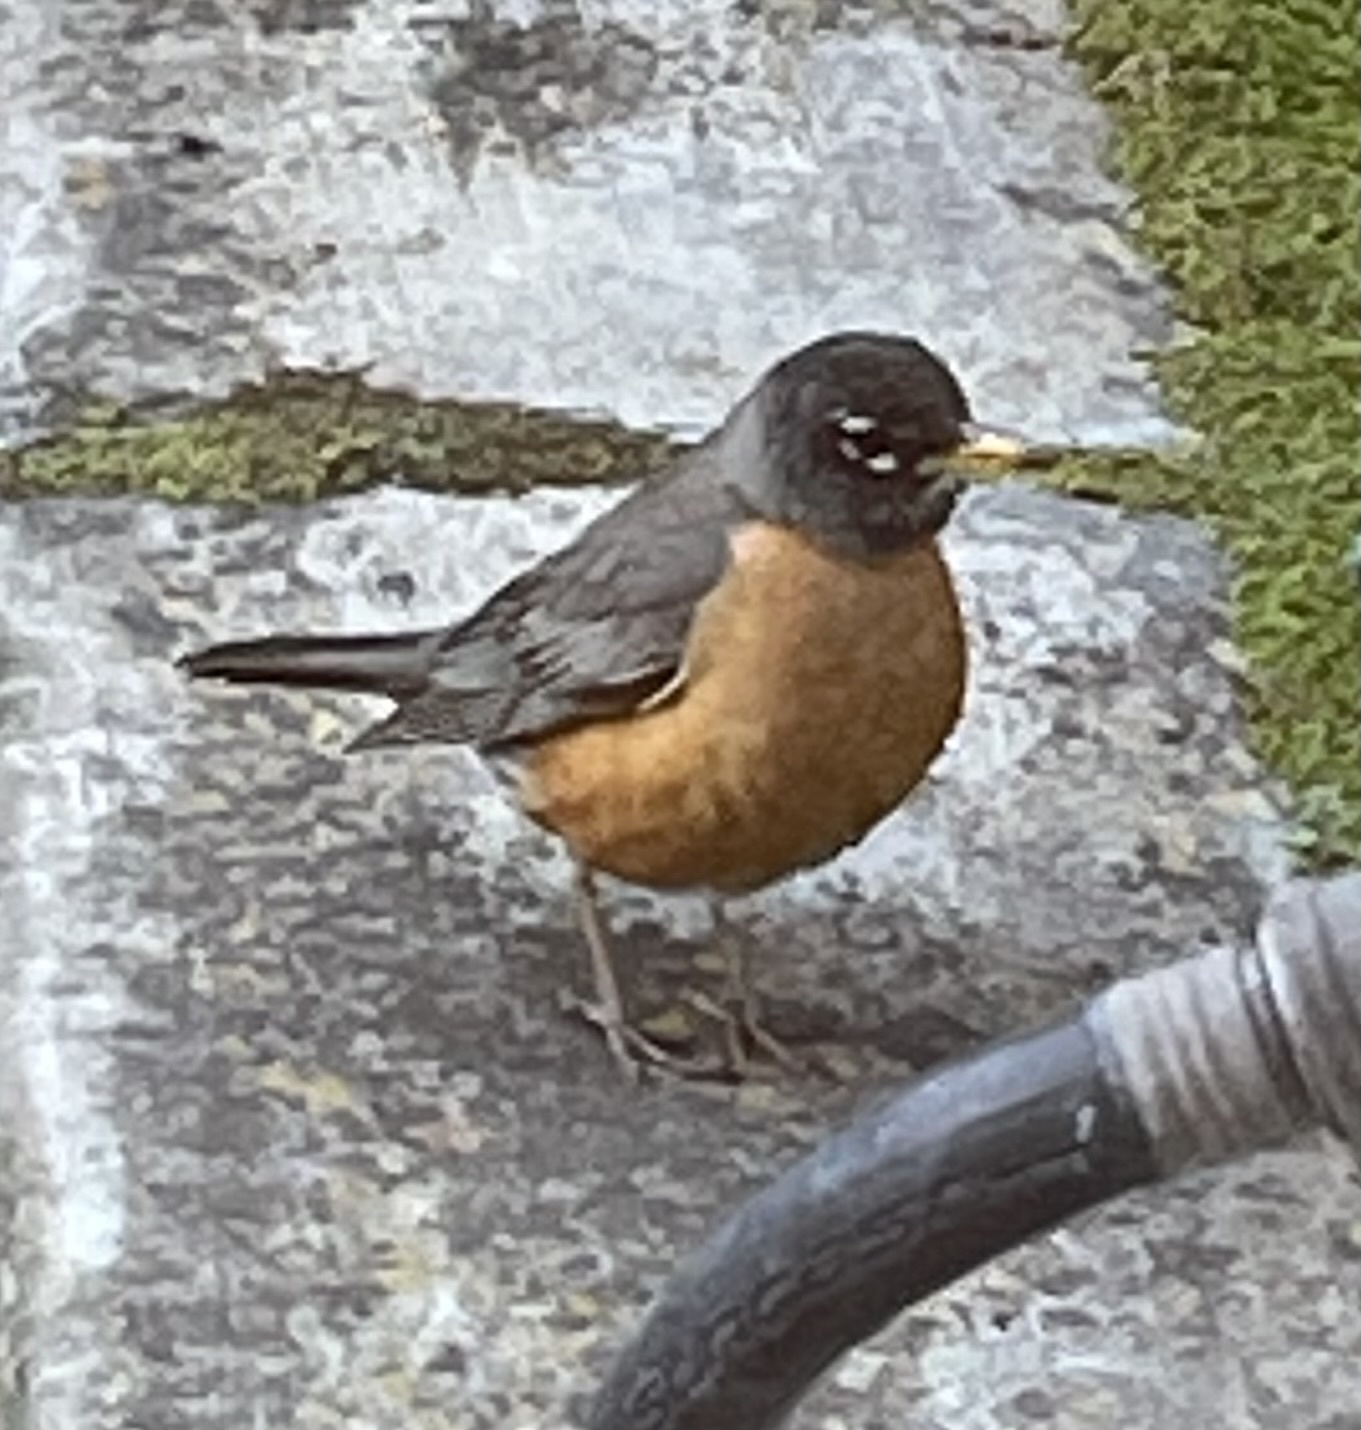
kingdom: Animalia
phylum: Chordata
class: Aves
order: Passeriformes
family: Turdidae
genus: Turdus
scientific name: Turdus migratorius
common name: American robin
